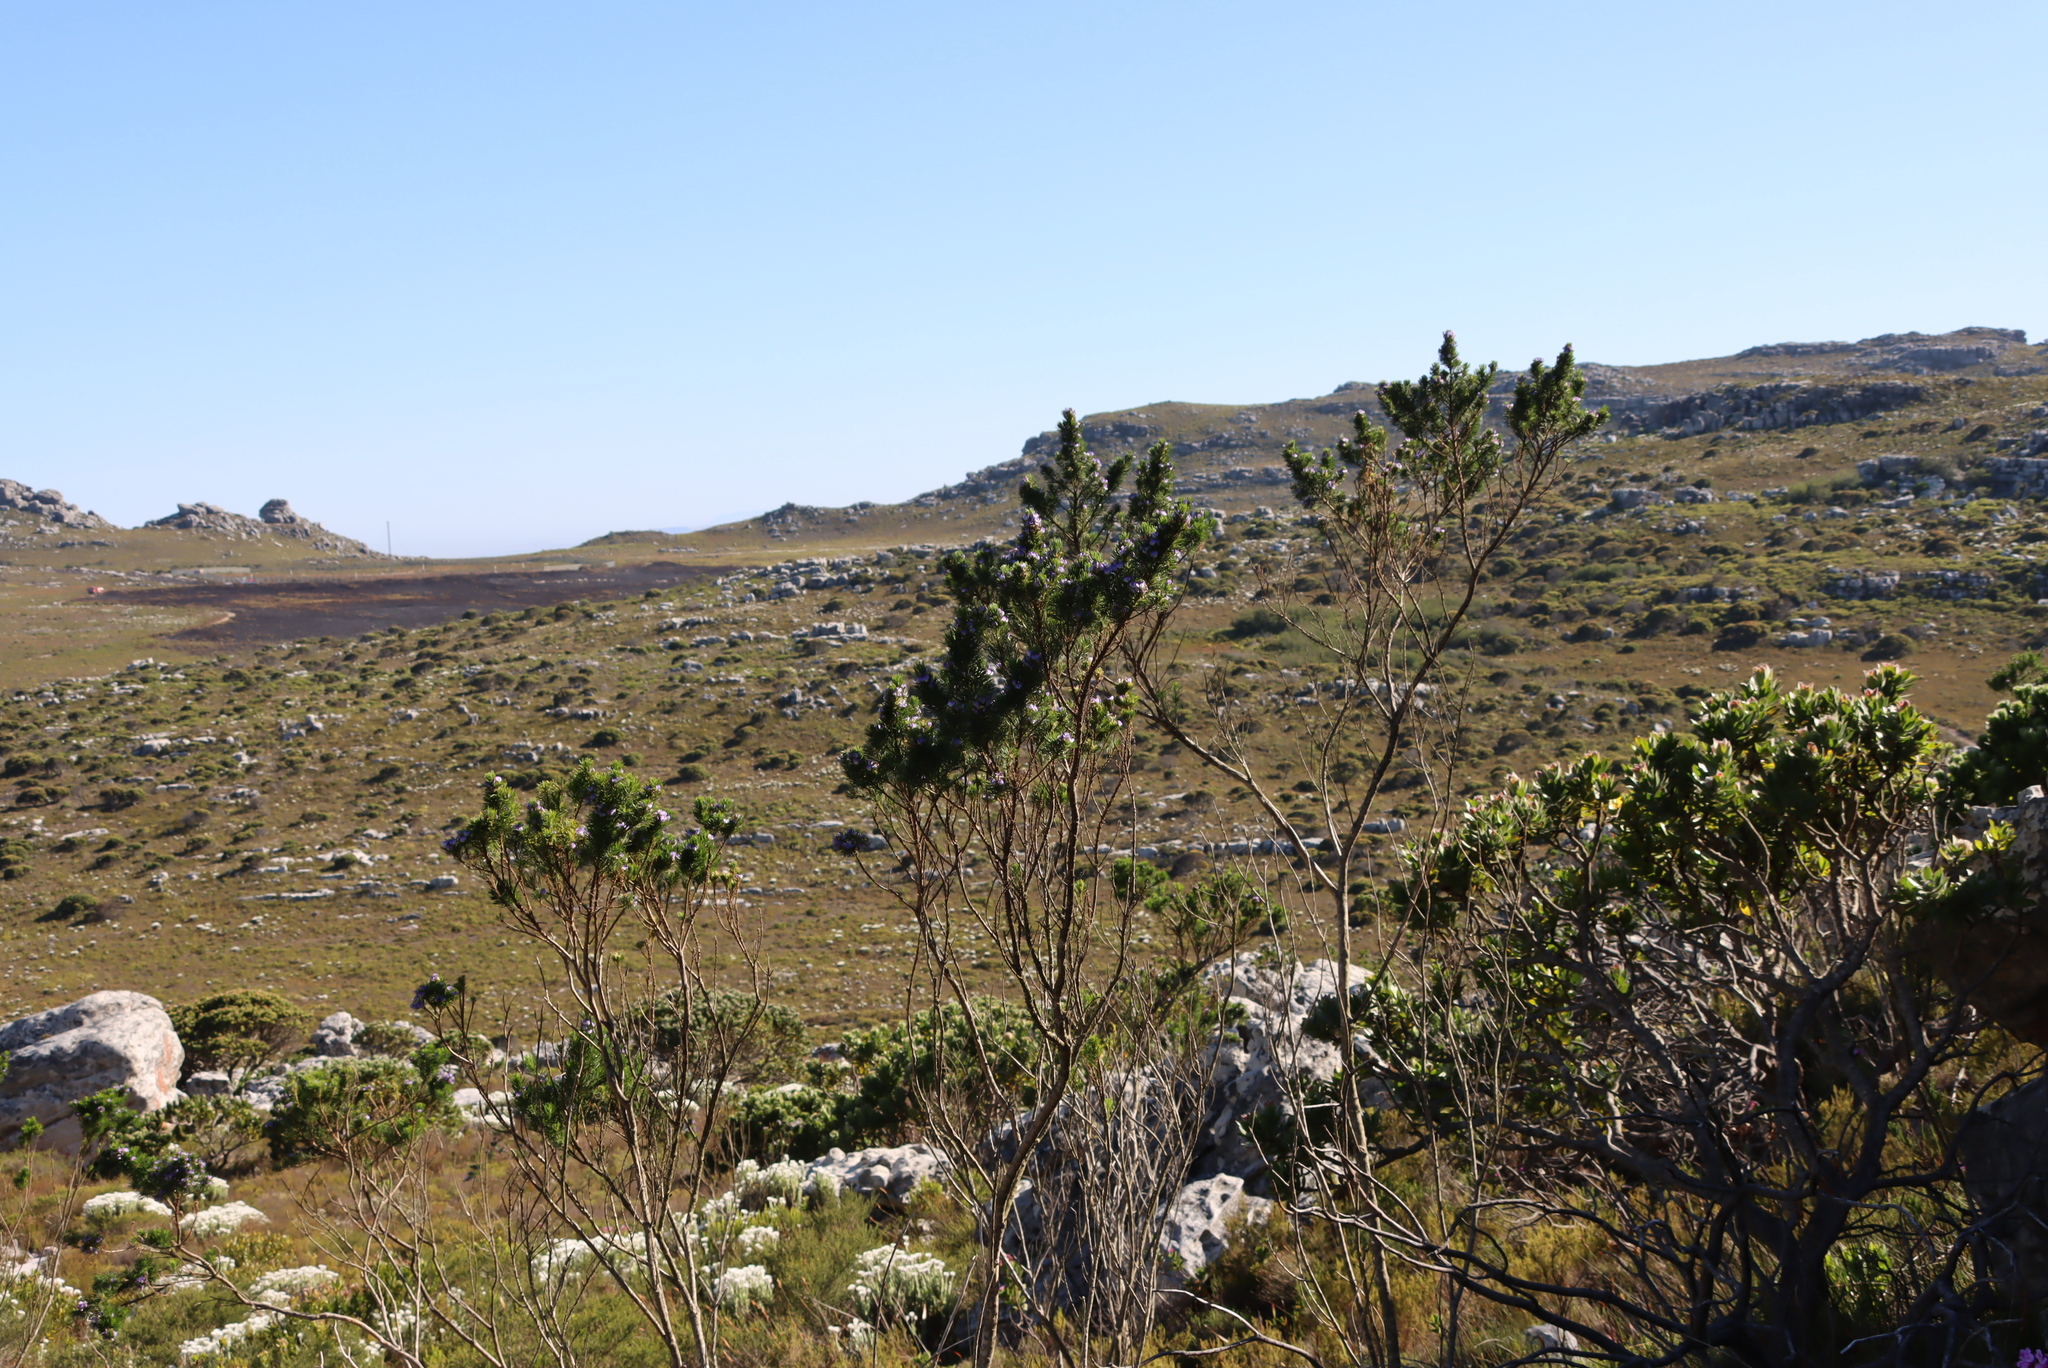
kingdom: Plantae
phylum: Tracheophyta
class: Magnoliopsida
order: Fabales
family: Fabaceae
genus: Psoralea
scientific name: Psoralea pinnata
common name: African scurfpea
